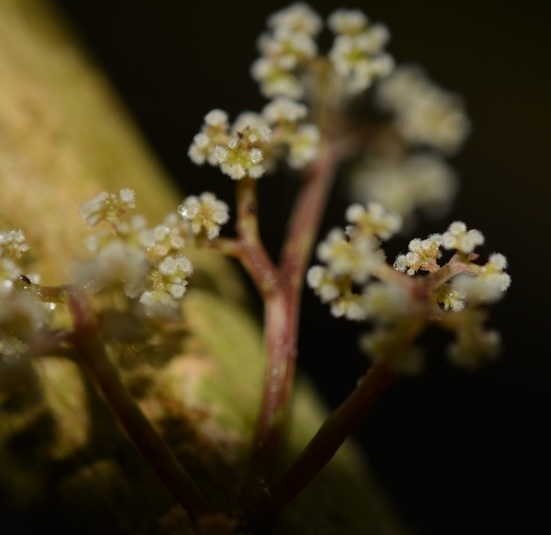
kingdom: Plantae
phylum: Tracheophyta
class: Magnoliopsida
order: Rosales
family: Urticaceae
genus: Urera
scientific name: Urera elata
